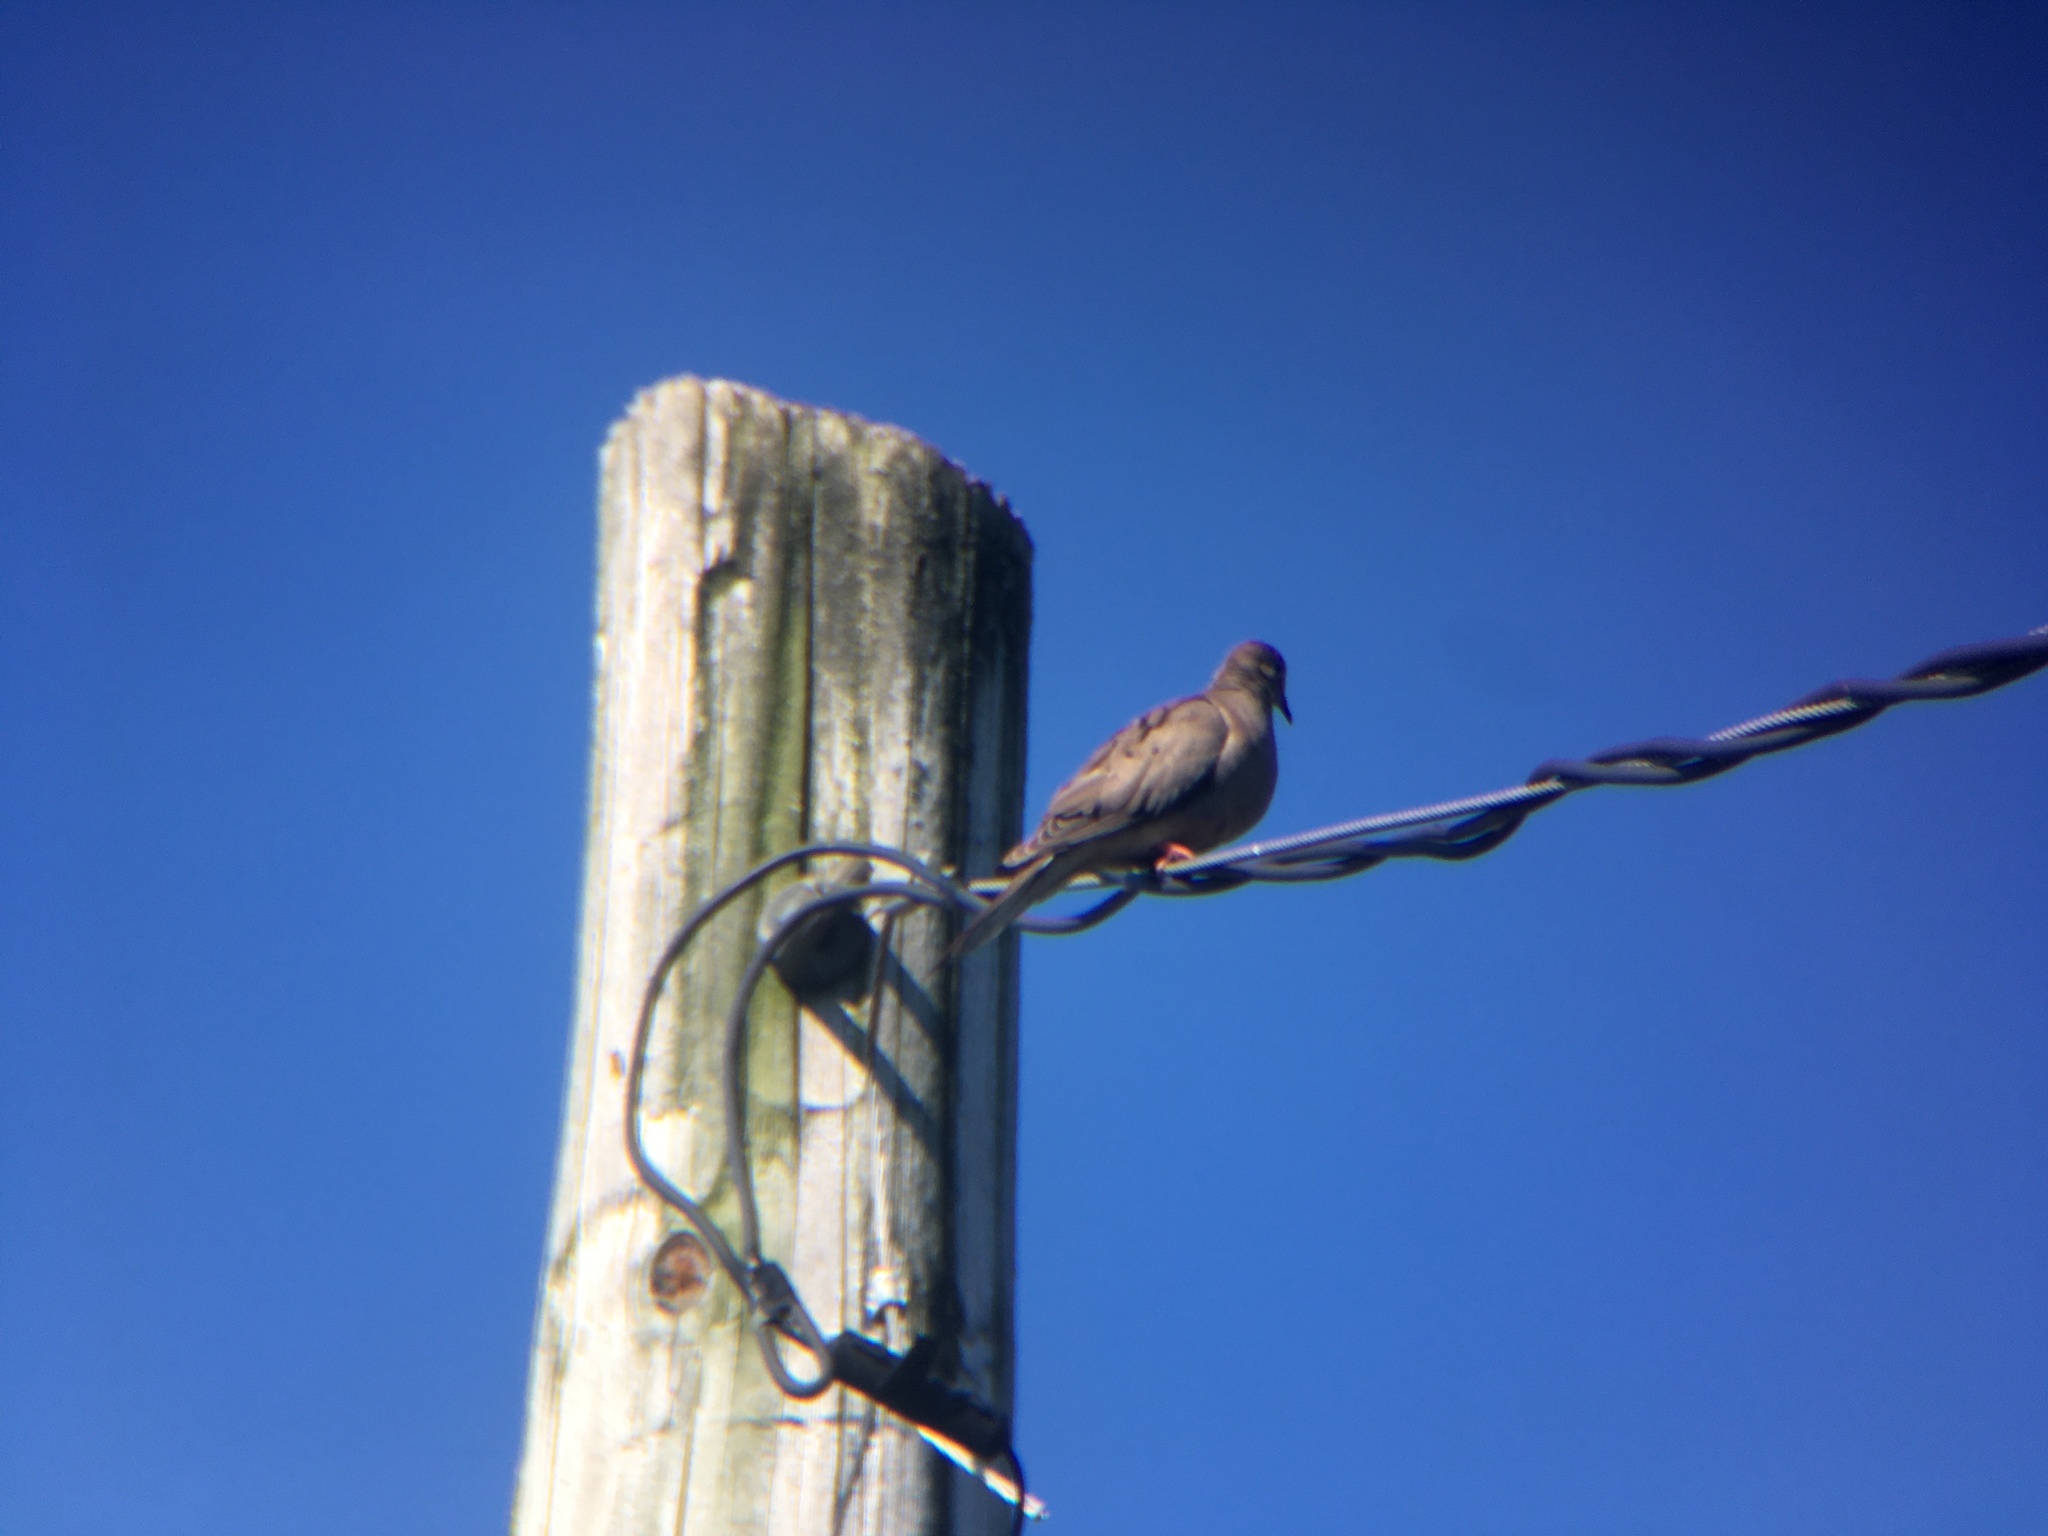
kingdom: Animalia
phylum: Chordata
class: Aves
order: Columbiformes
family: Columbidae
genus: Zenaida
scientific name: Zenaida macroura
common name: Mourning dove
